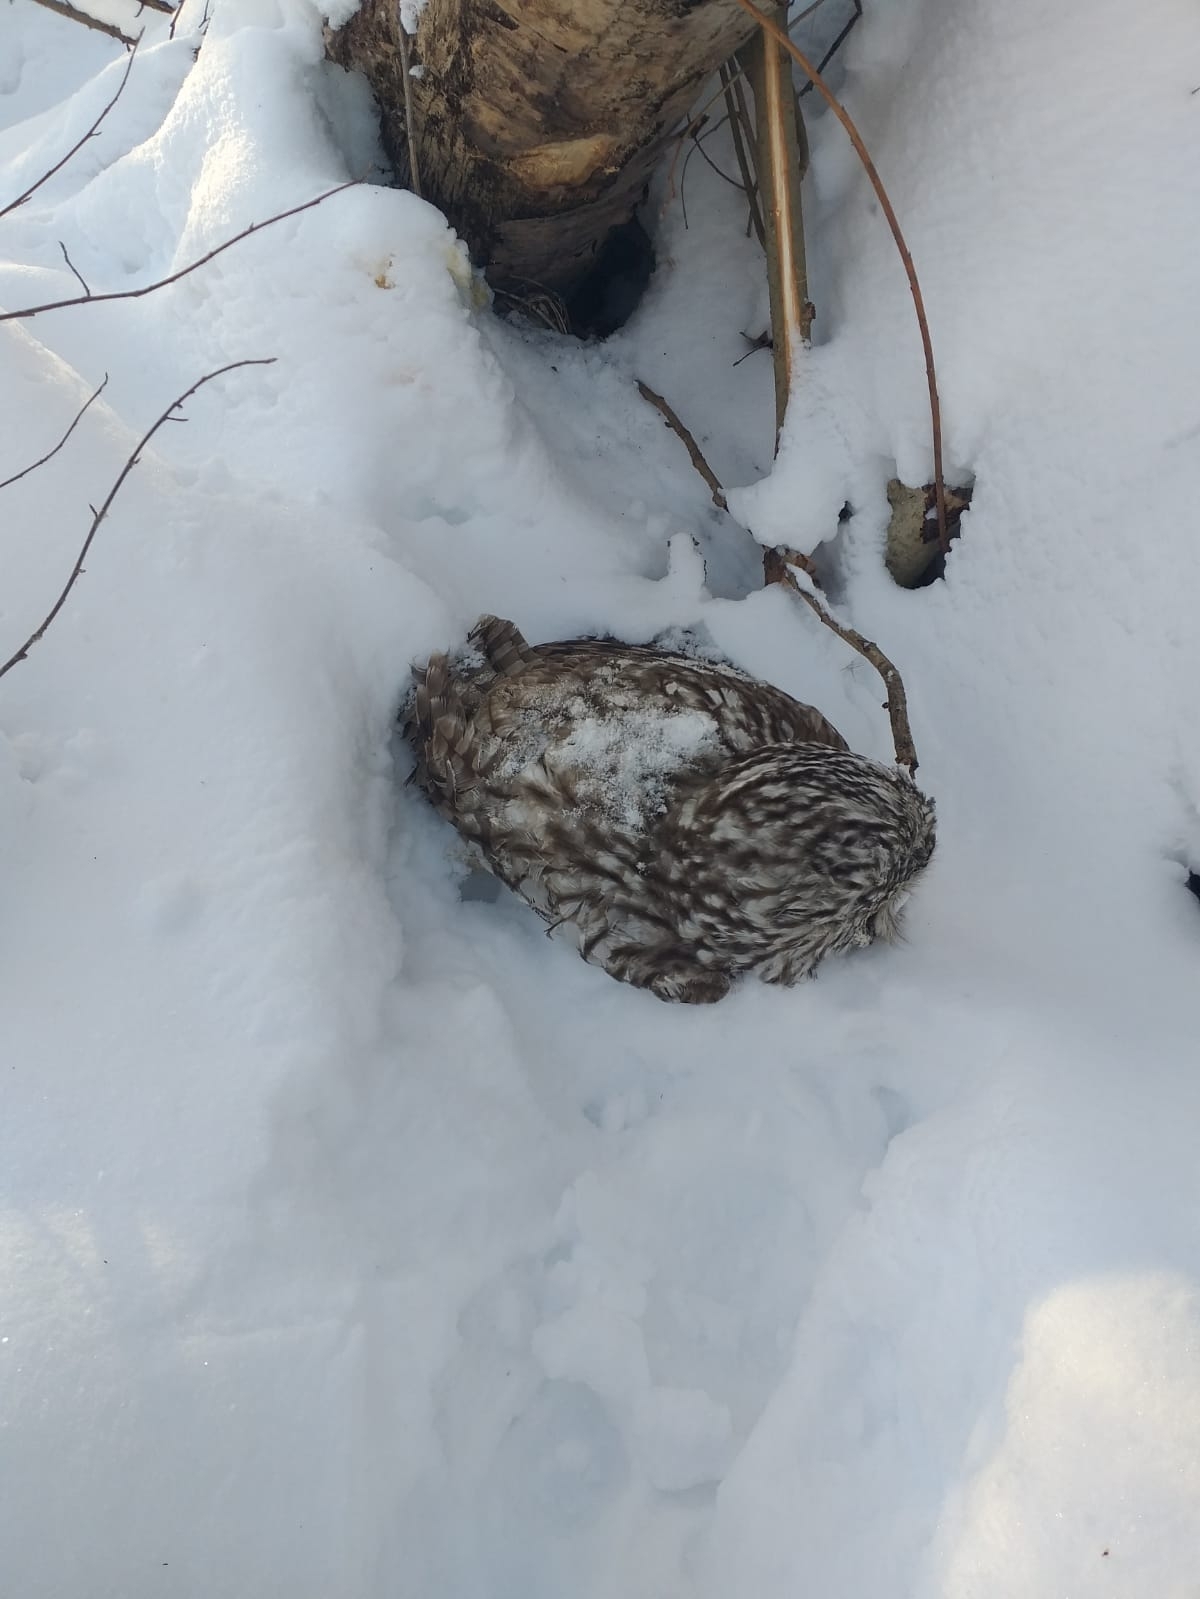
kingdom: Animalia
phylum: Chordata
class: Aves
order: Strigiformes
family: Strigidae
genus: Strix
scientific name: Strix uralensis
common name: Ural owl
